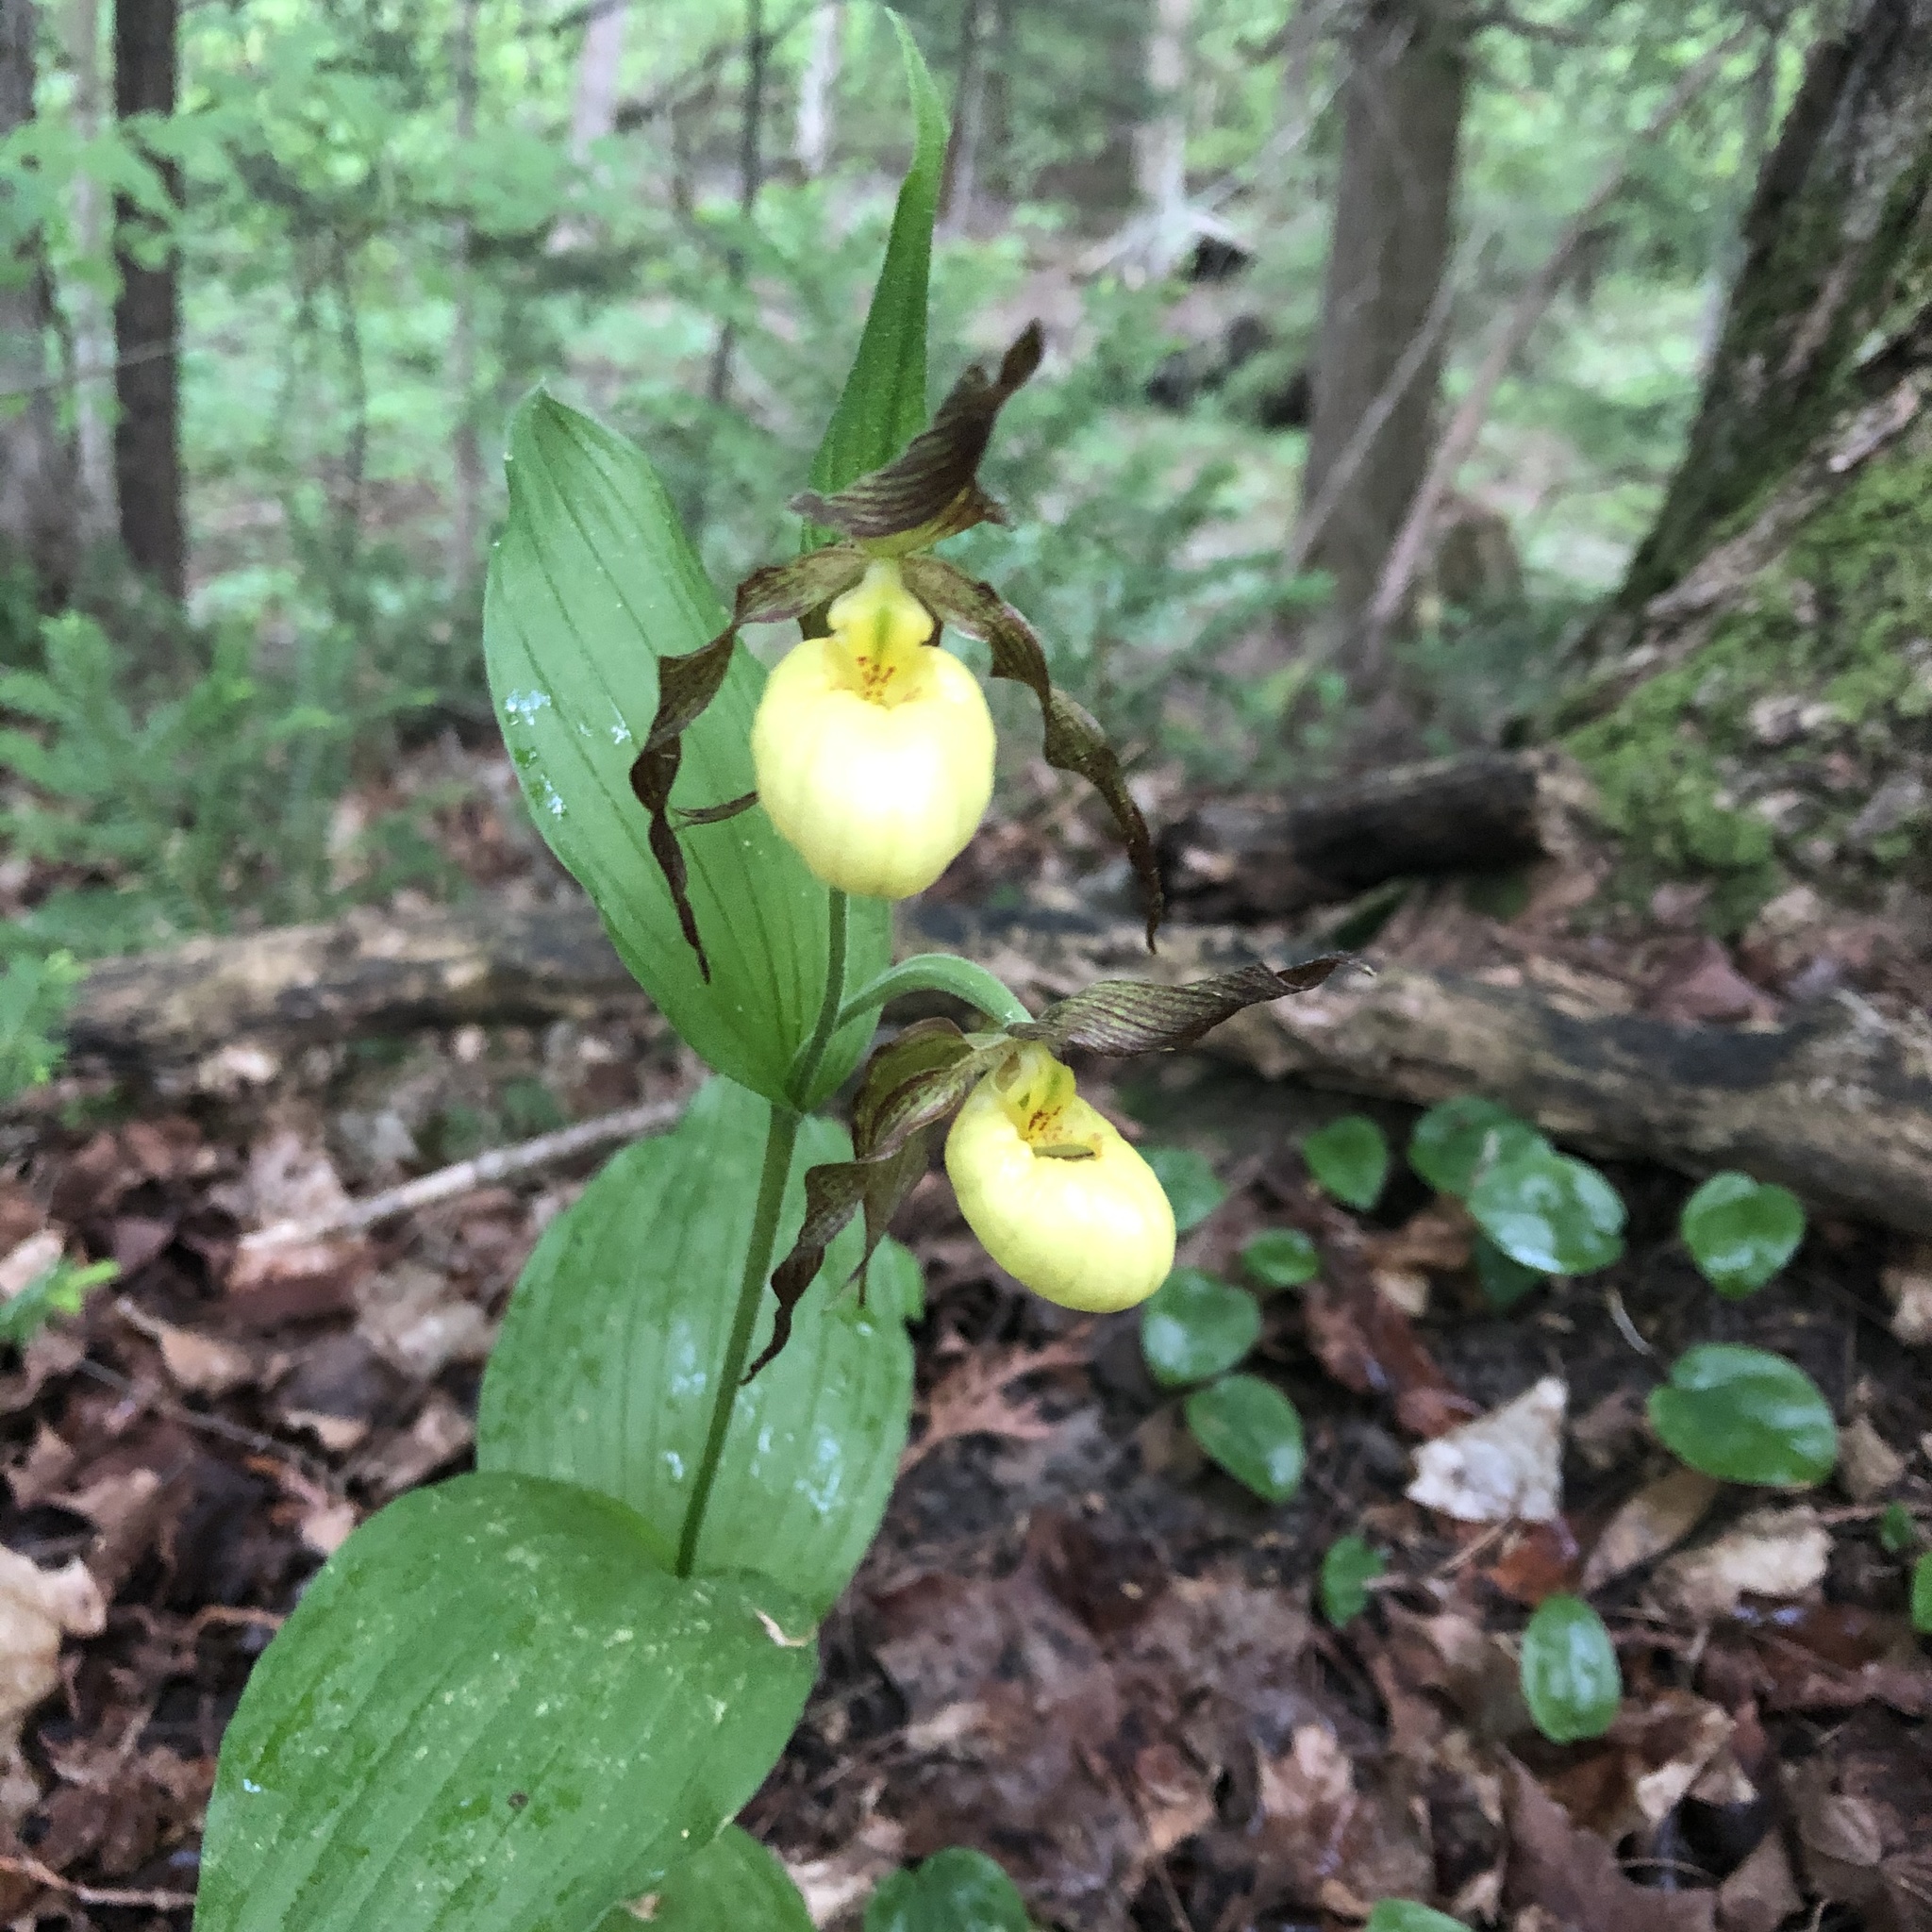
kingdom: Plantae
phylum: Tracheophyta
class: Liliopsida
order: Asparagales
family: Orchidaceae
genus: Cypripedium
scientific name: Cypripedium parviflorum
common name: American yellow lady's-slipper
